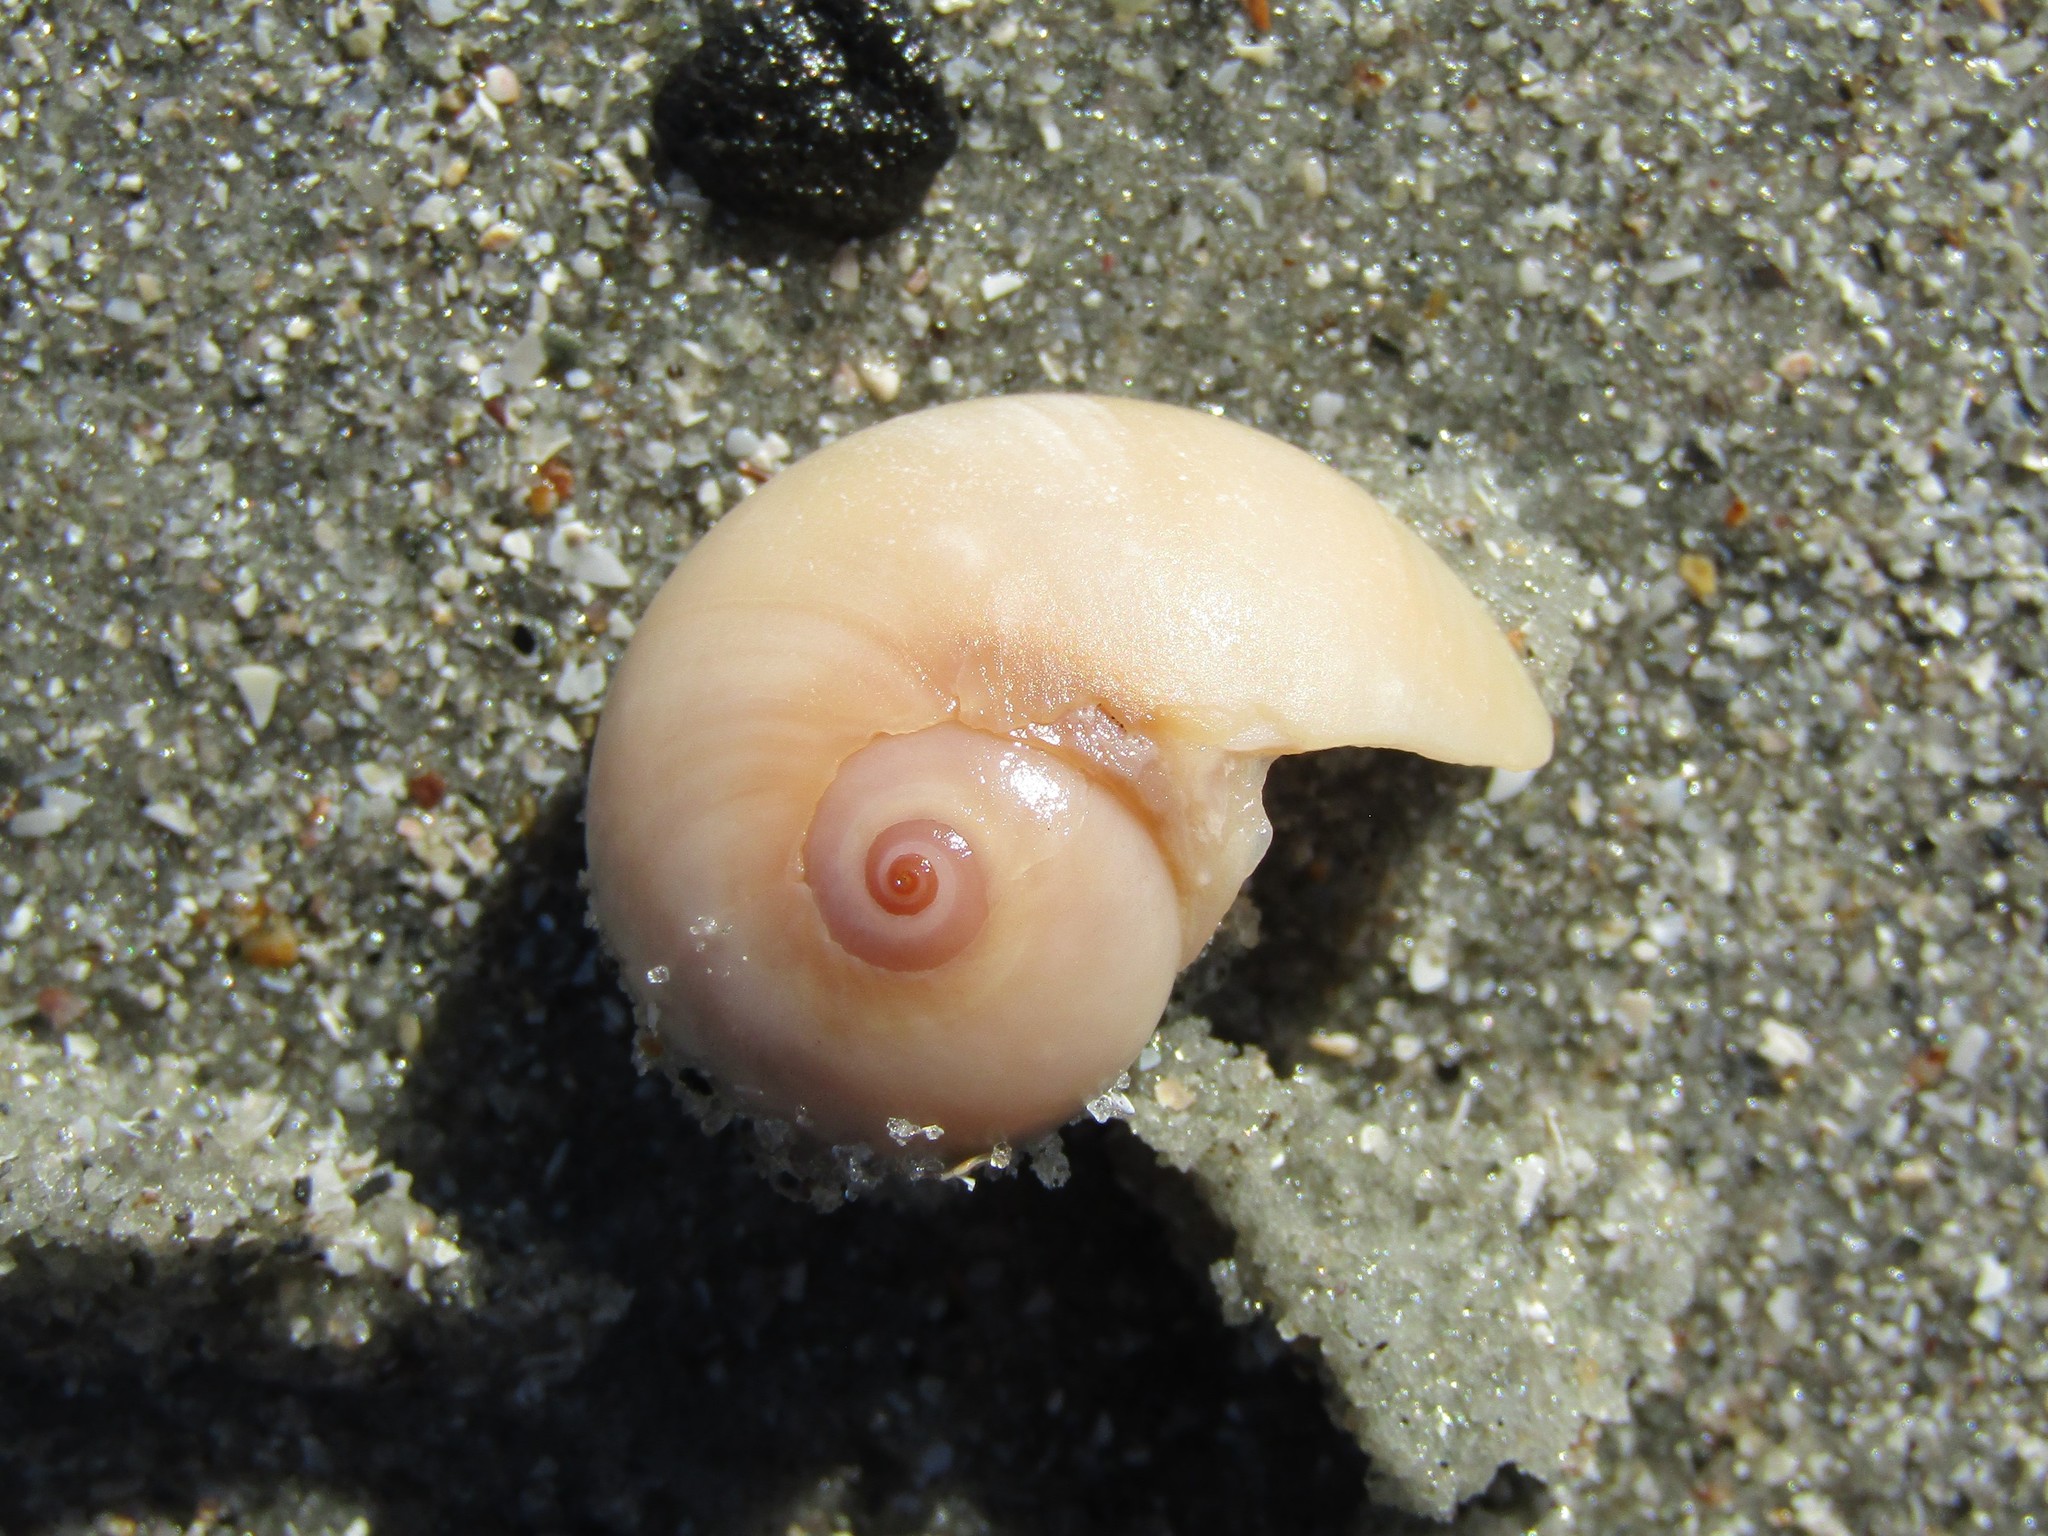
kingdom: Animalia
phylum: Mollusca
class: Gastropoda
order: Littorinimorpha
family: Naticidae
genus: Neverita
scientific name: Neverita duplicata
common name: Lobed moonsnail
